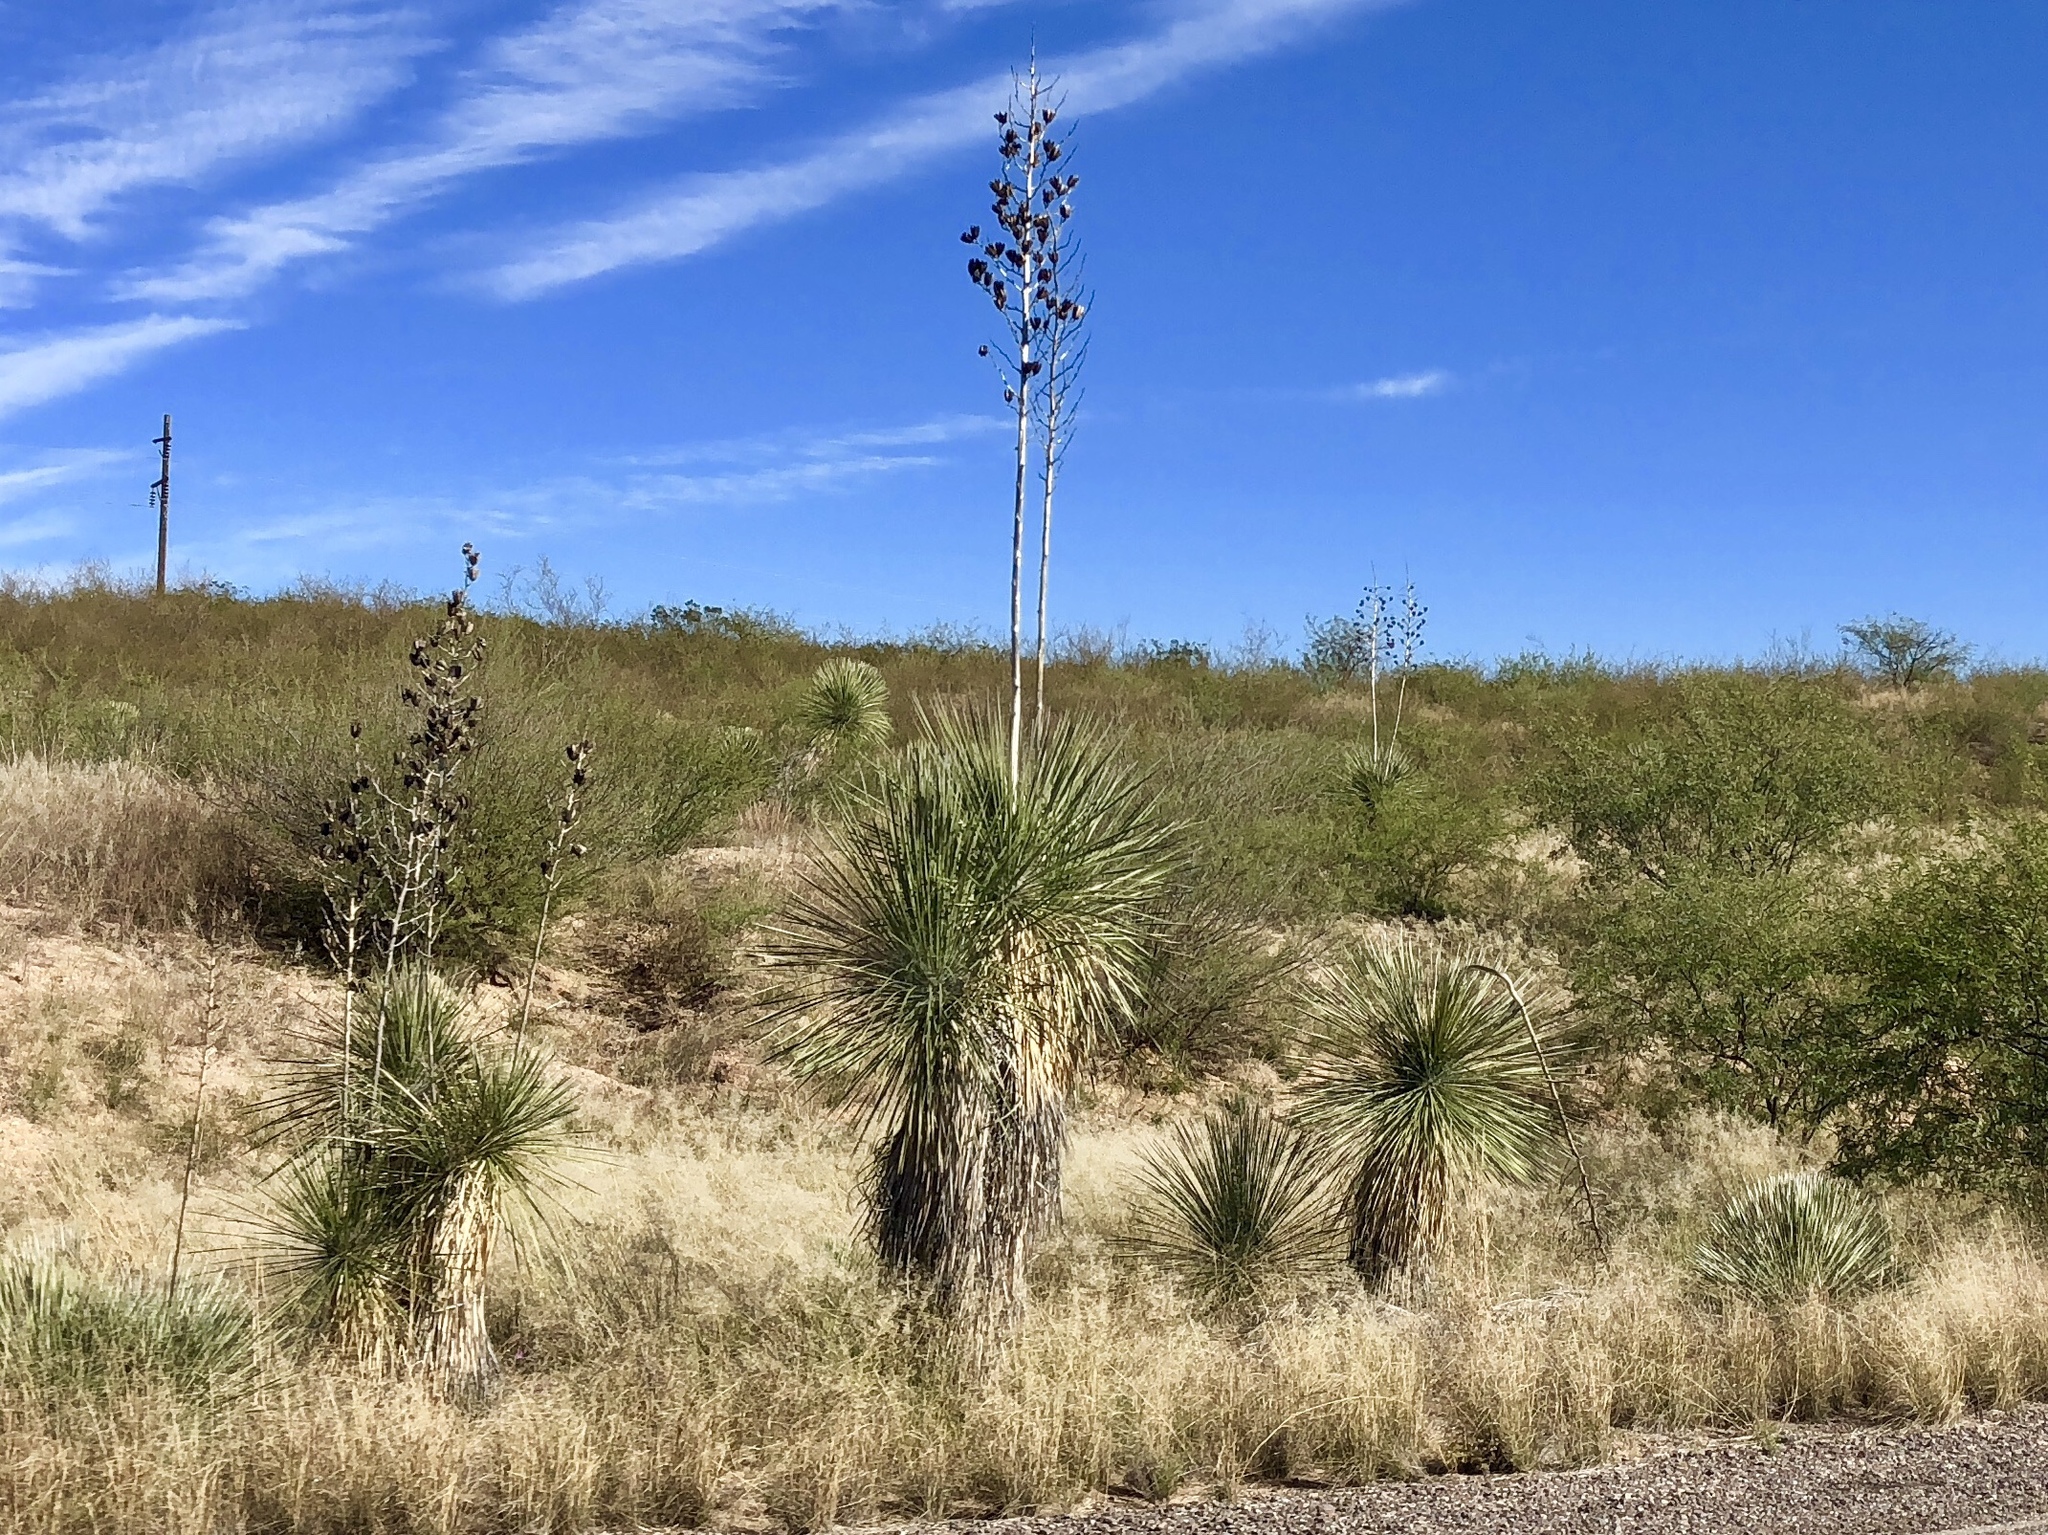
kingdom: Plantae
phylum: Tracheophyta
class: Liliopsida
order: Asparagales
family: Asparagaceae
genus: Yucca
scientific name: Yucca elata
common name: Palmella
